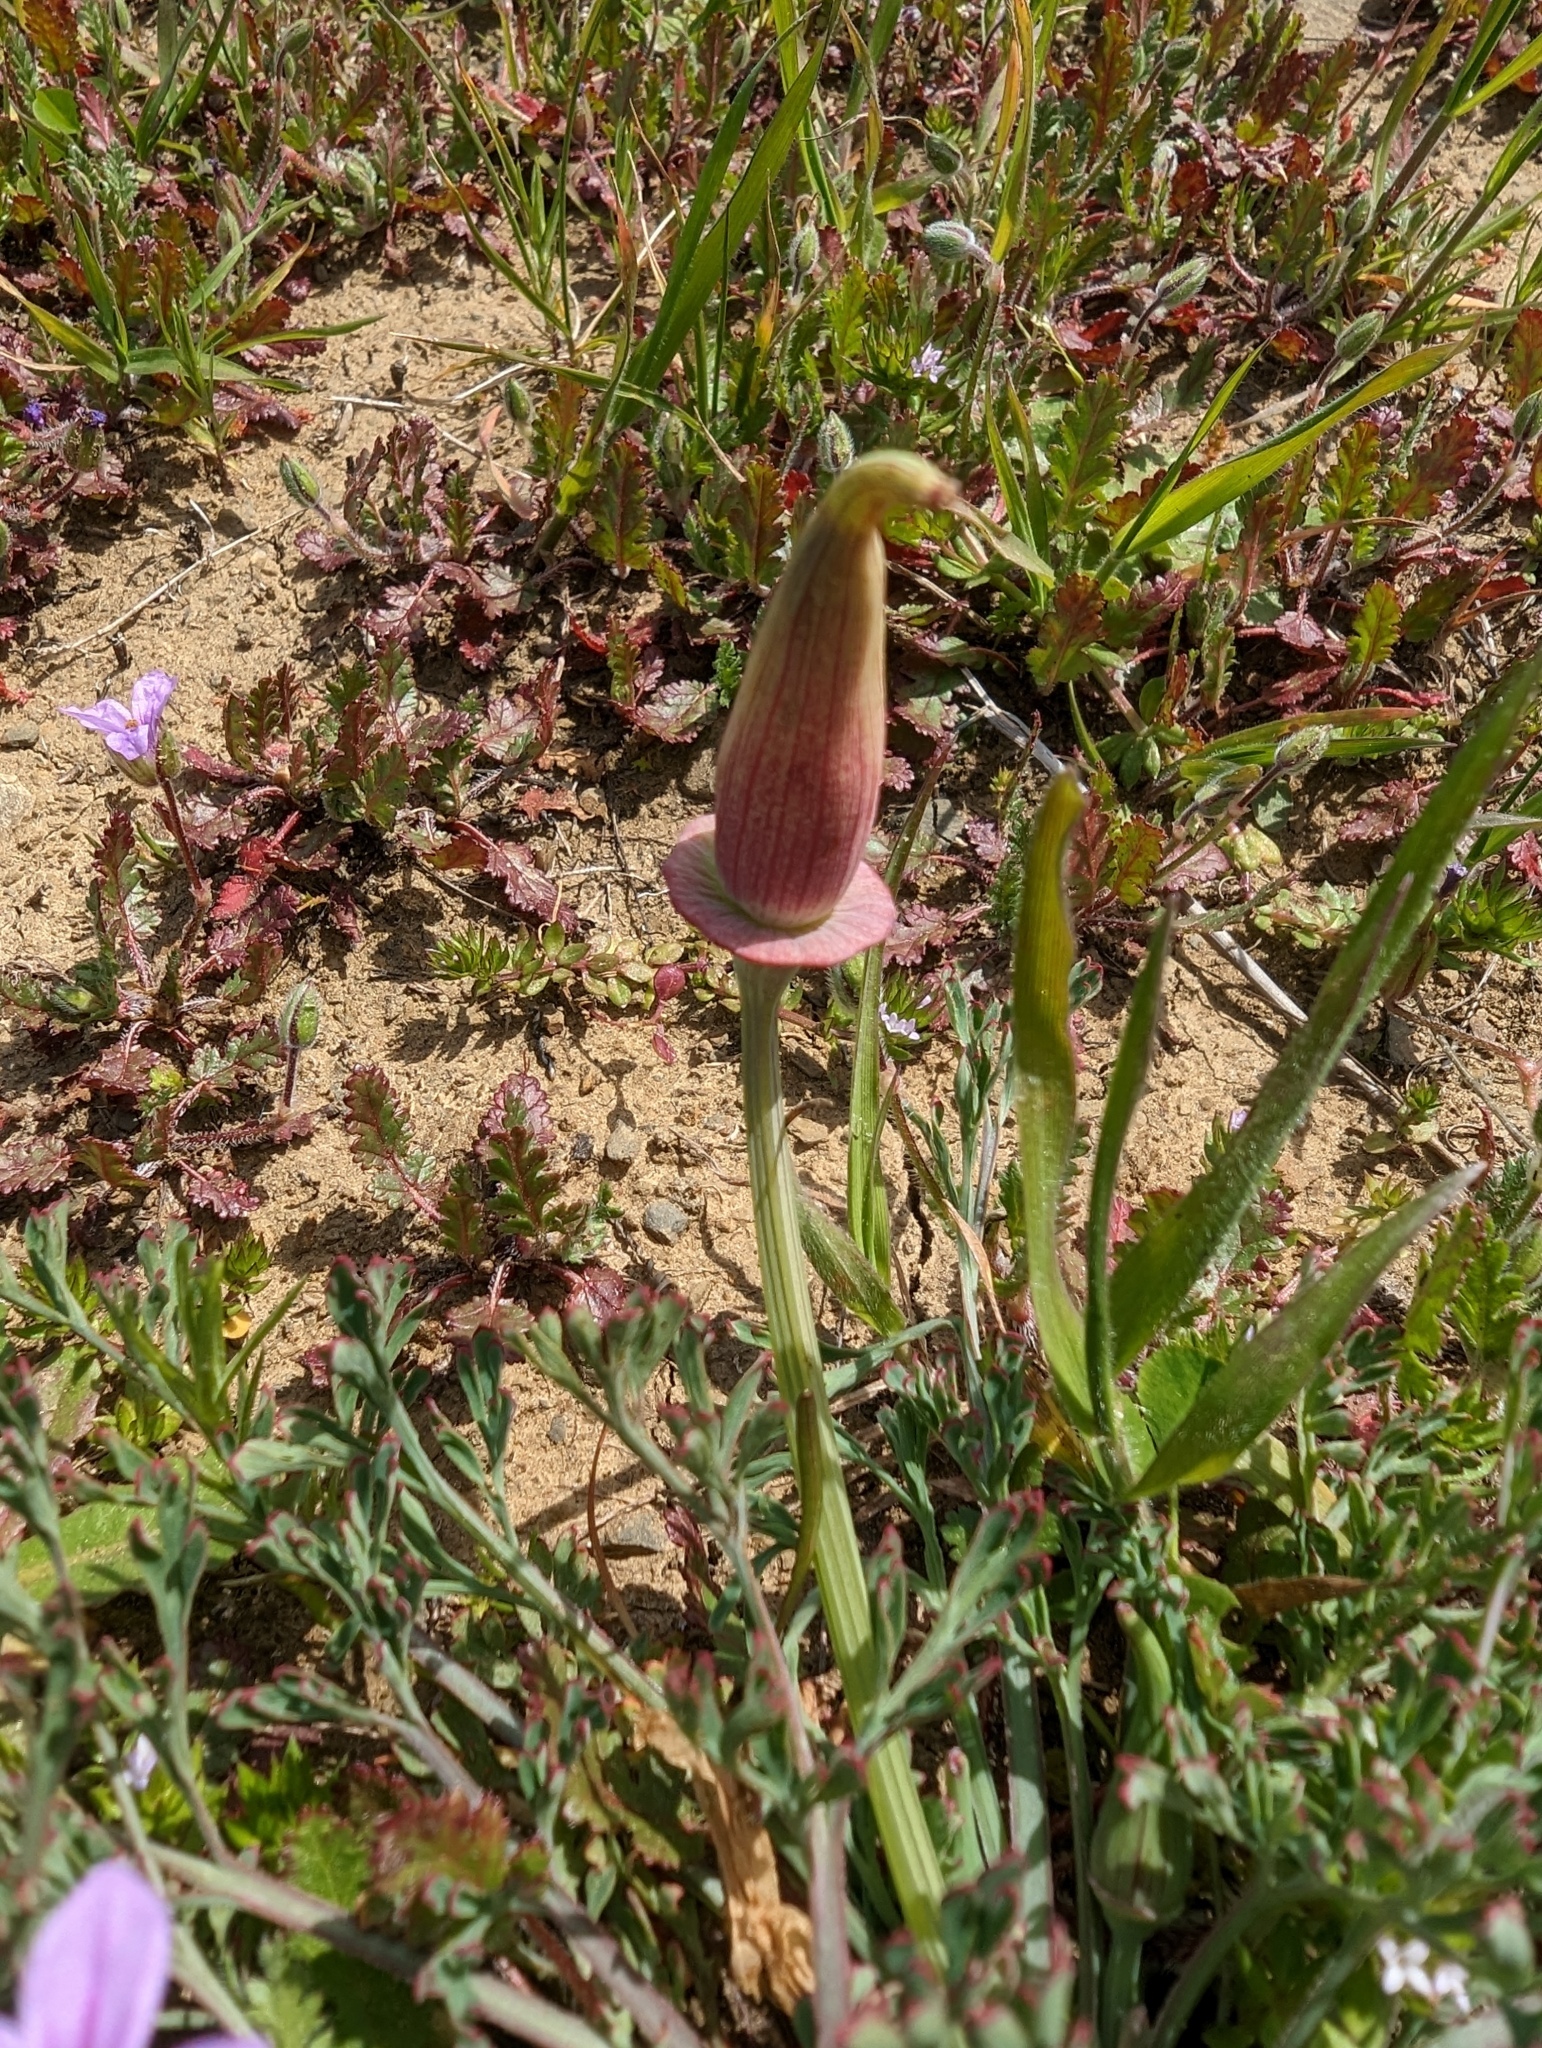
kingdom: Plantae
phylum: Tracheophyta
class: Magnoliopsida
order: Ranunculales
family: Papaveraceae
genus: Eschscholzia
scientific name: Eschscholzia californica
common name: California poppy
